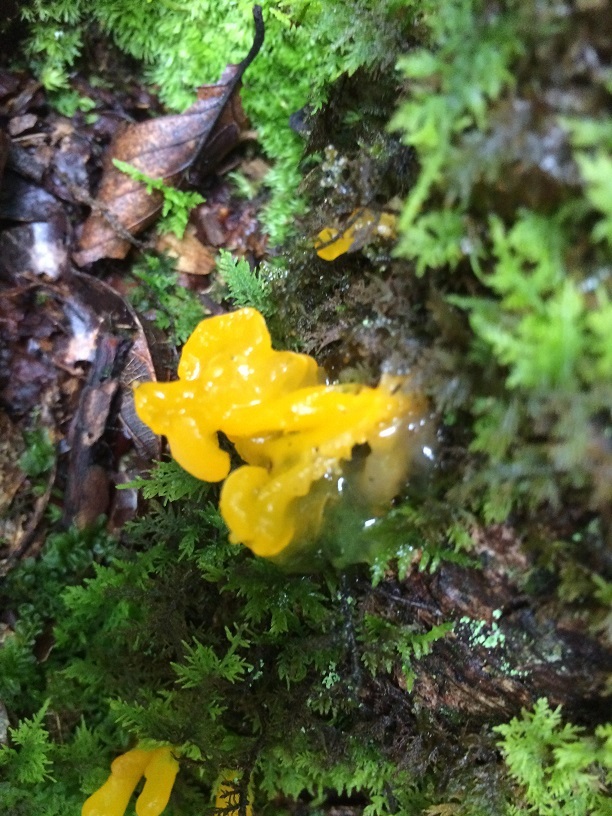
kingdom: Fungi
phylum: Basidiomycota
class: Tremellomycetes
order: Tremellales
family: Tremellaceae
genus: Tremella
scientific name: Tremella mesenterica
